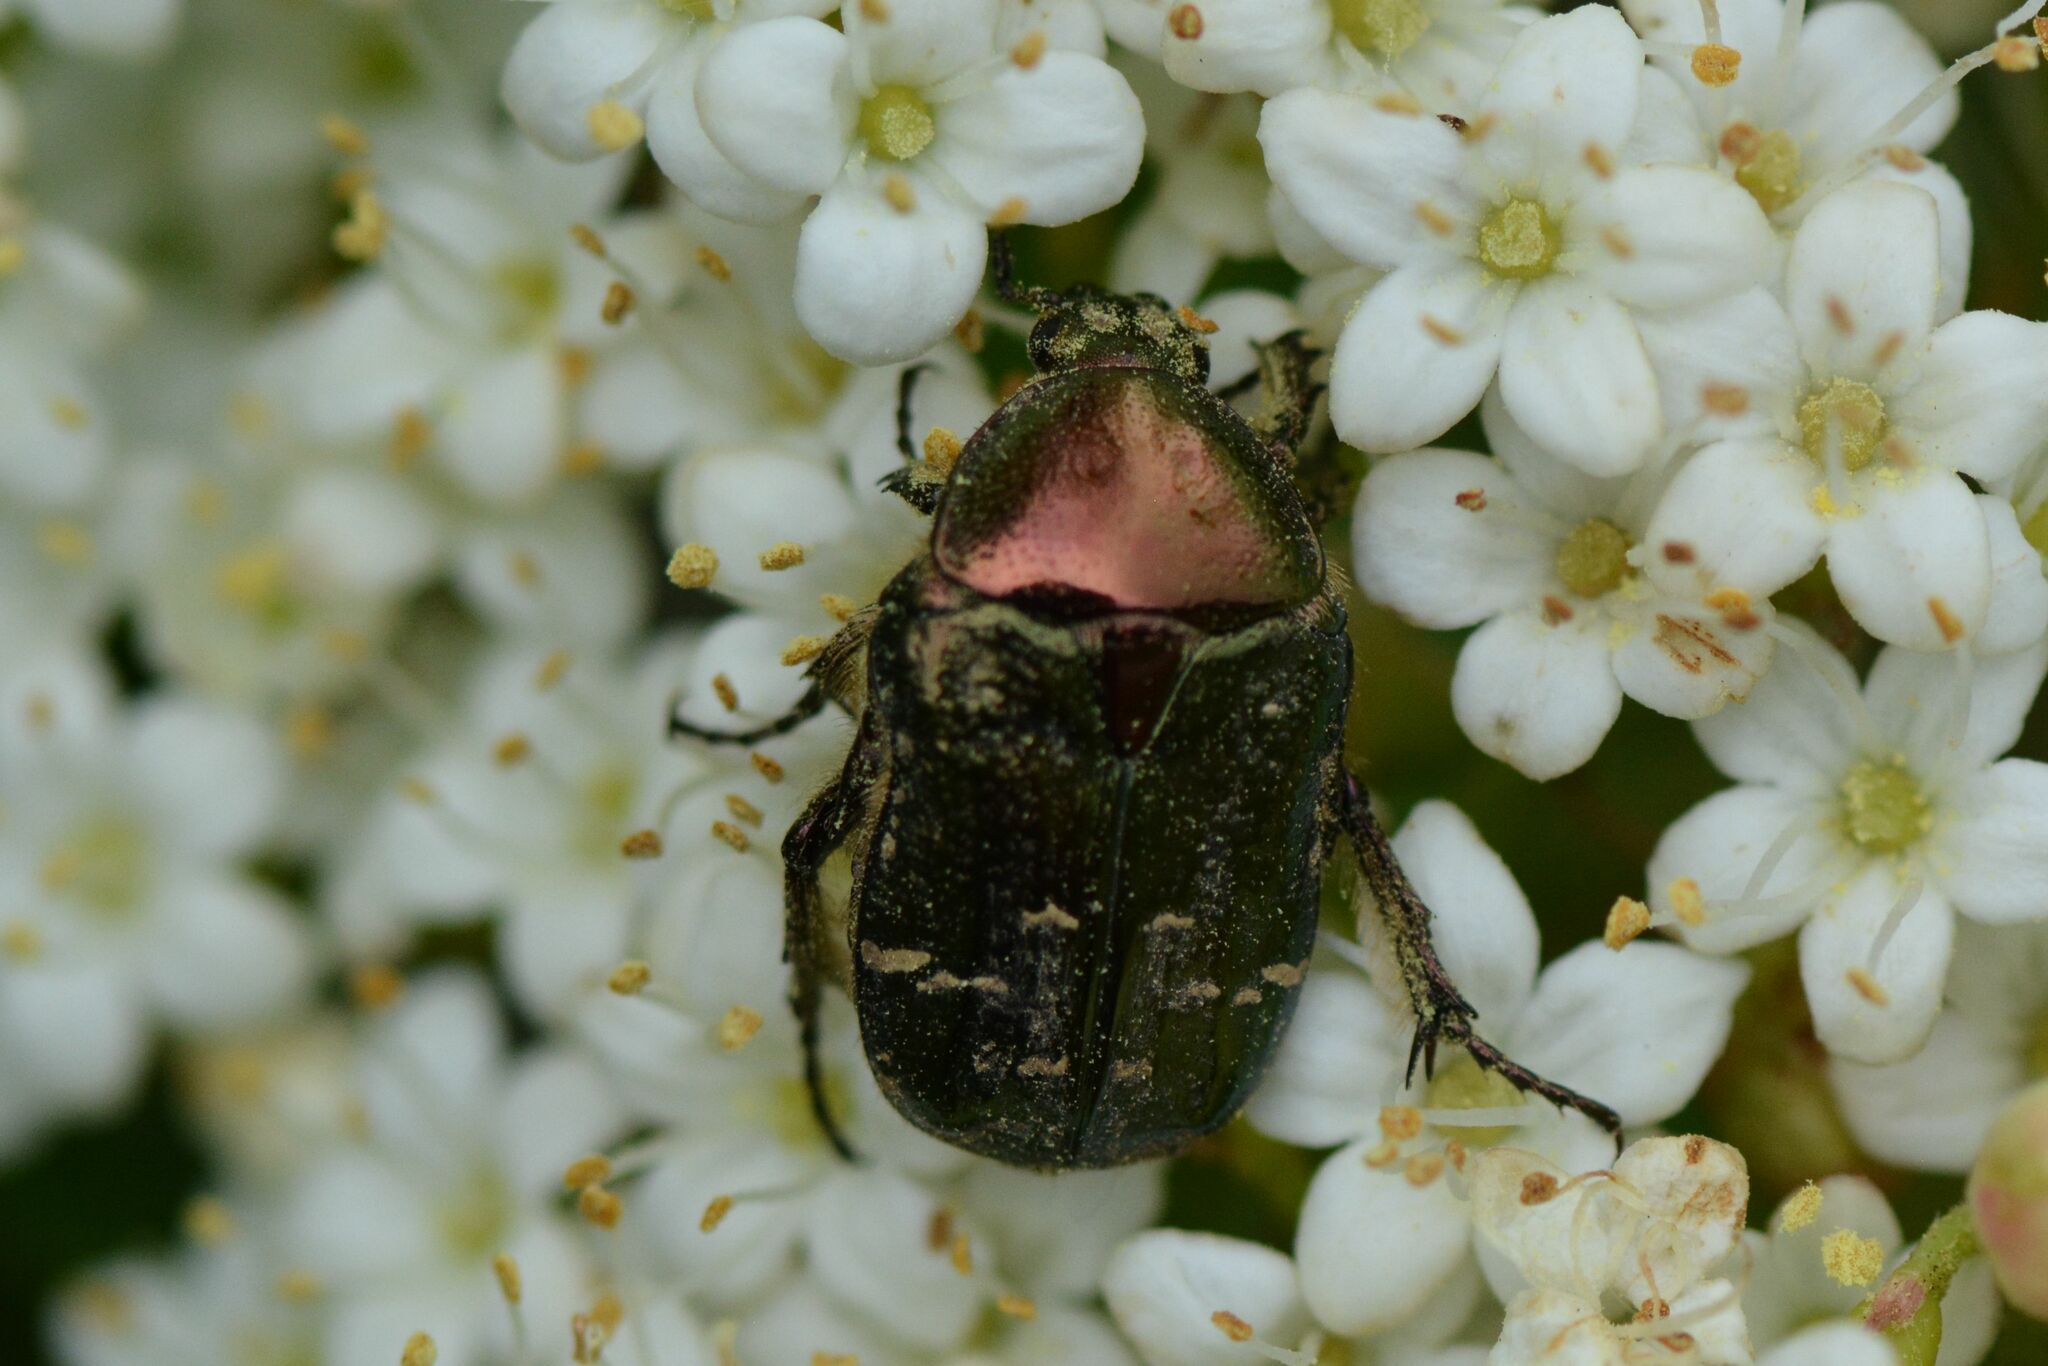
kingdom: Animalia
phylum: Arthropoda
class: Insecta
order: Coleoptera
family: Scarabaeidae
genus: Cetonia
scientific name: Cetonia aurata
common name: Rose chafer
